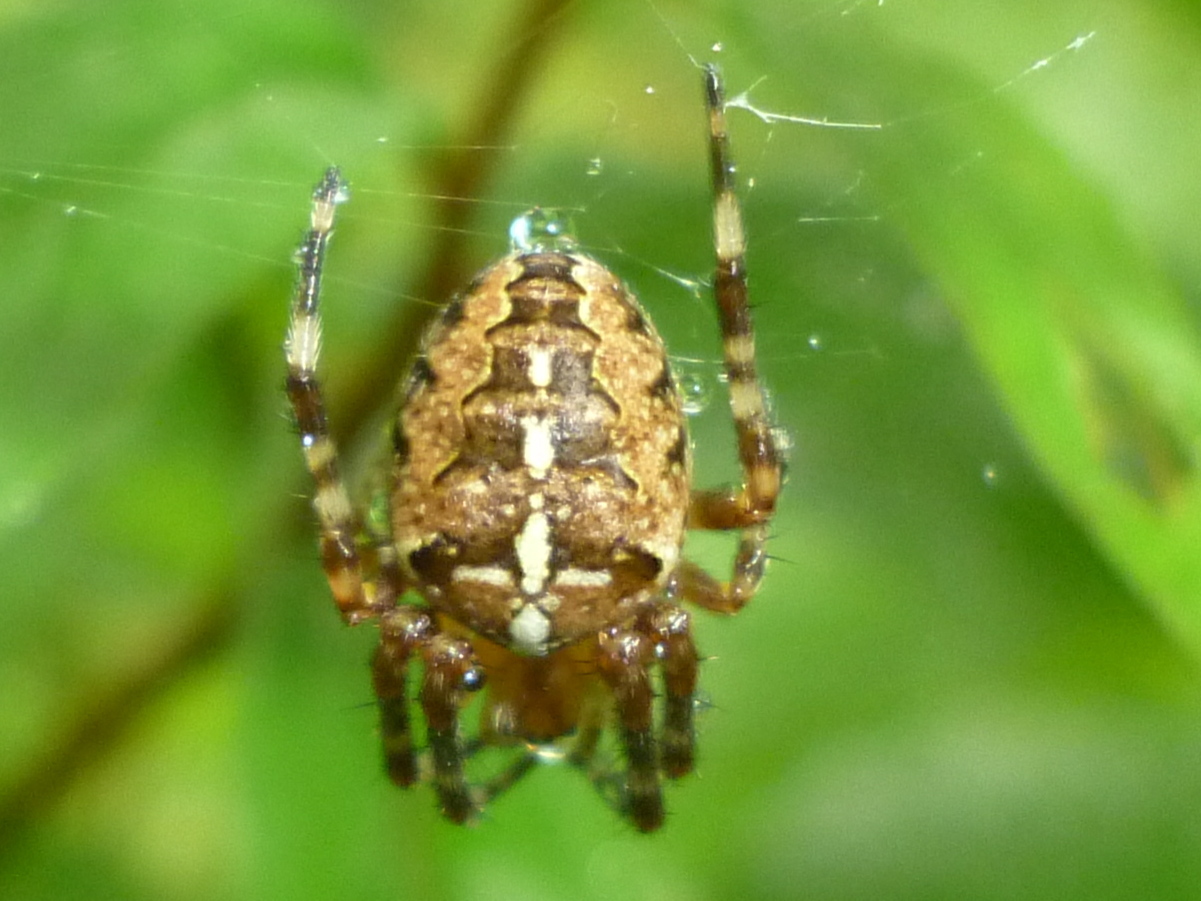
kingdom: Animalia
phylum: Arthropoda
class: Arachnida
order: Araneae
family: Araneidae
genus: Araneus
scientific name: Araneus diadematus
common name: Cross orbweaver
